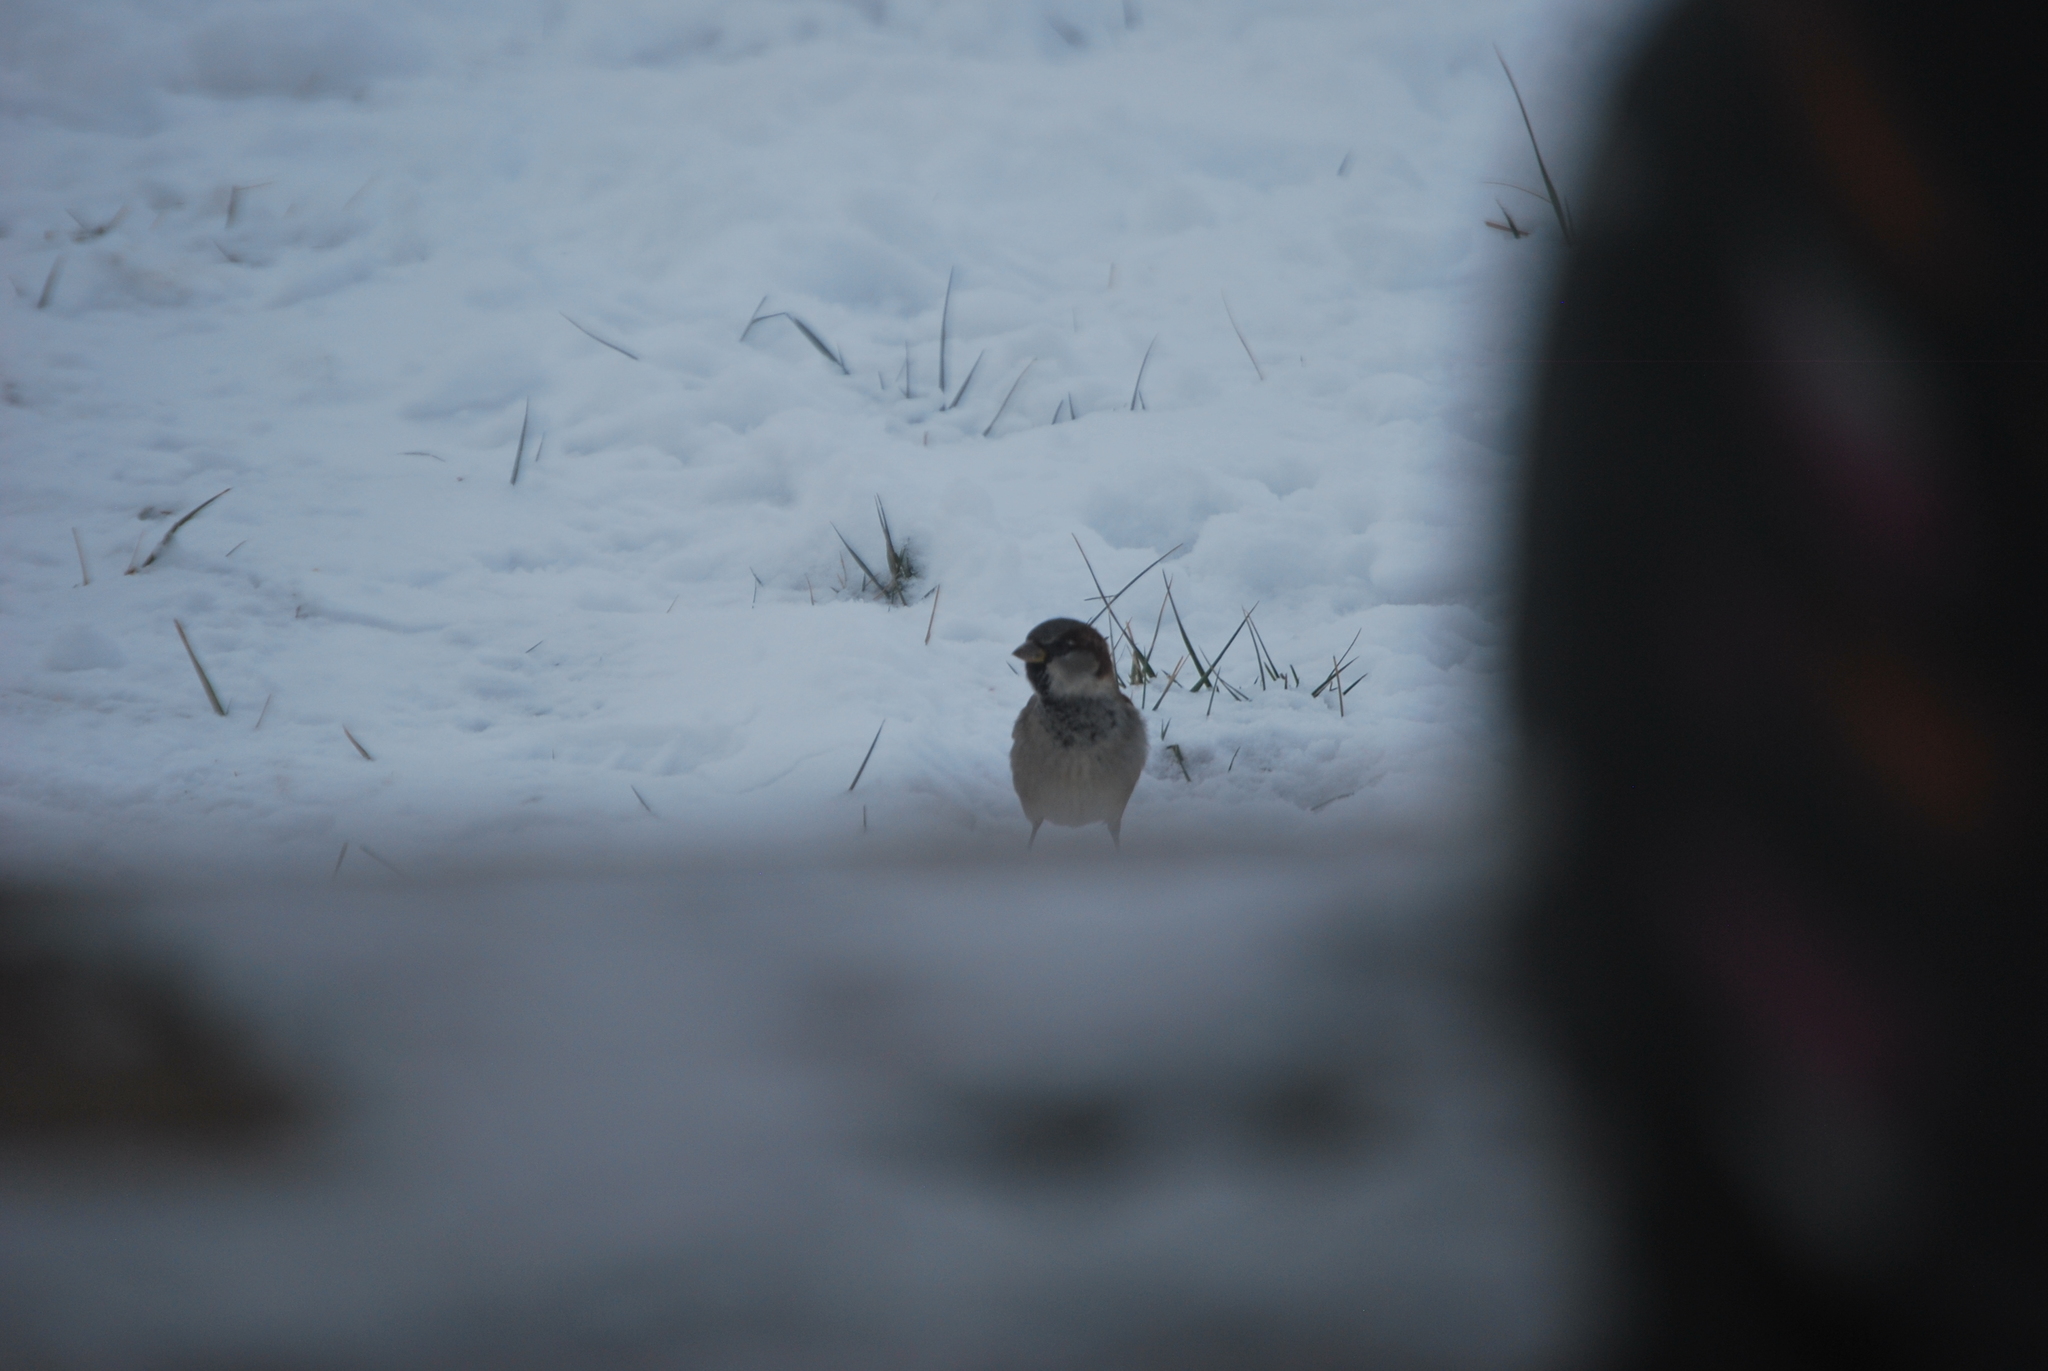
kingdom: Animalia
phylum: Chordata
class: Aves
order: Passeriformes
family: Passeridae
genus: Passer
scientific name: Passer domesticus
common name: House sparrow
